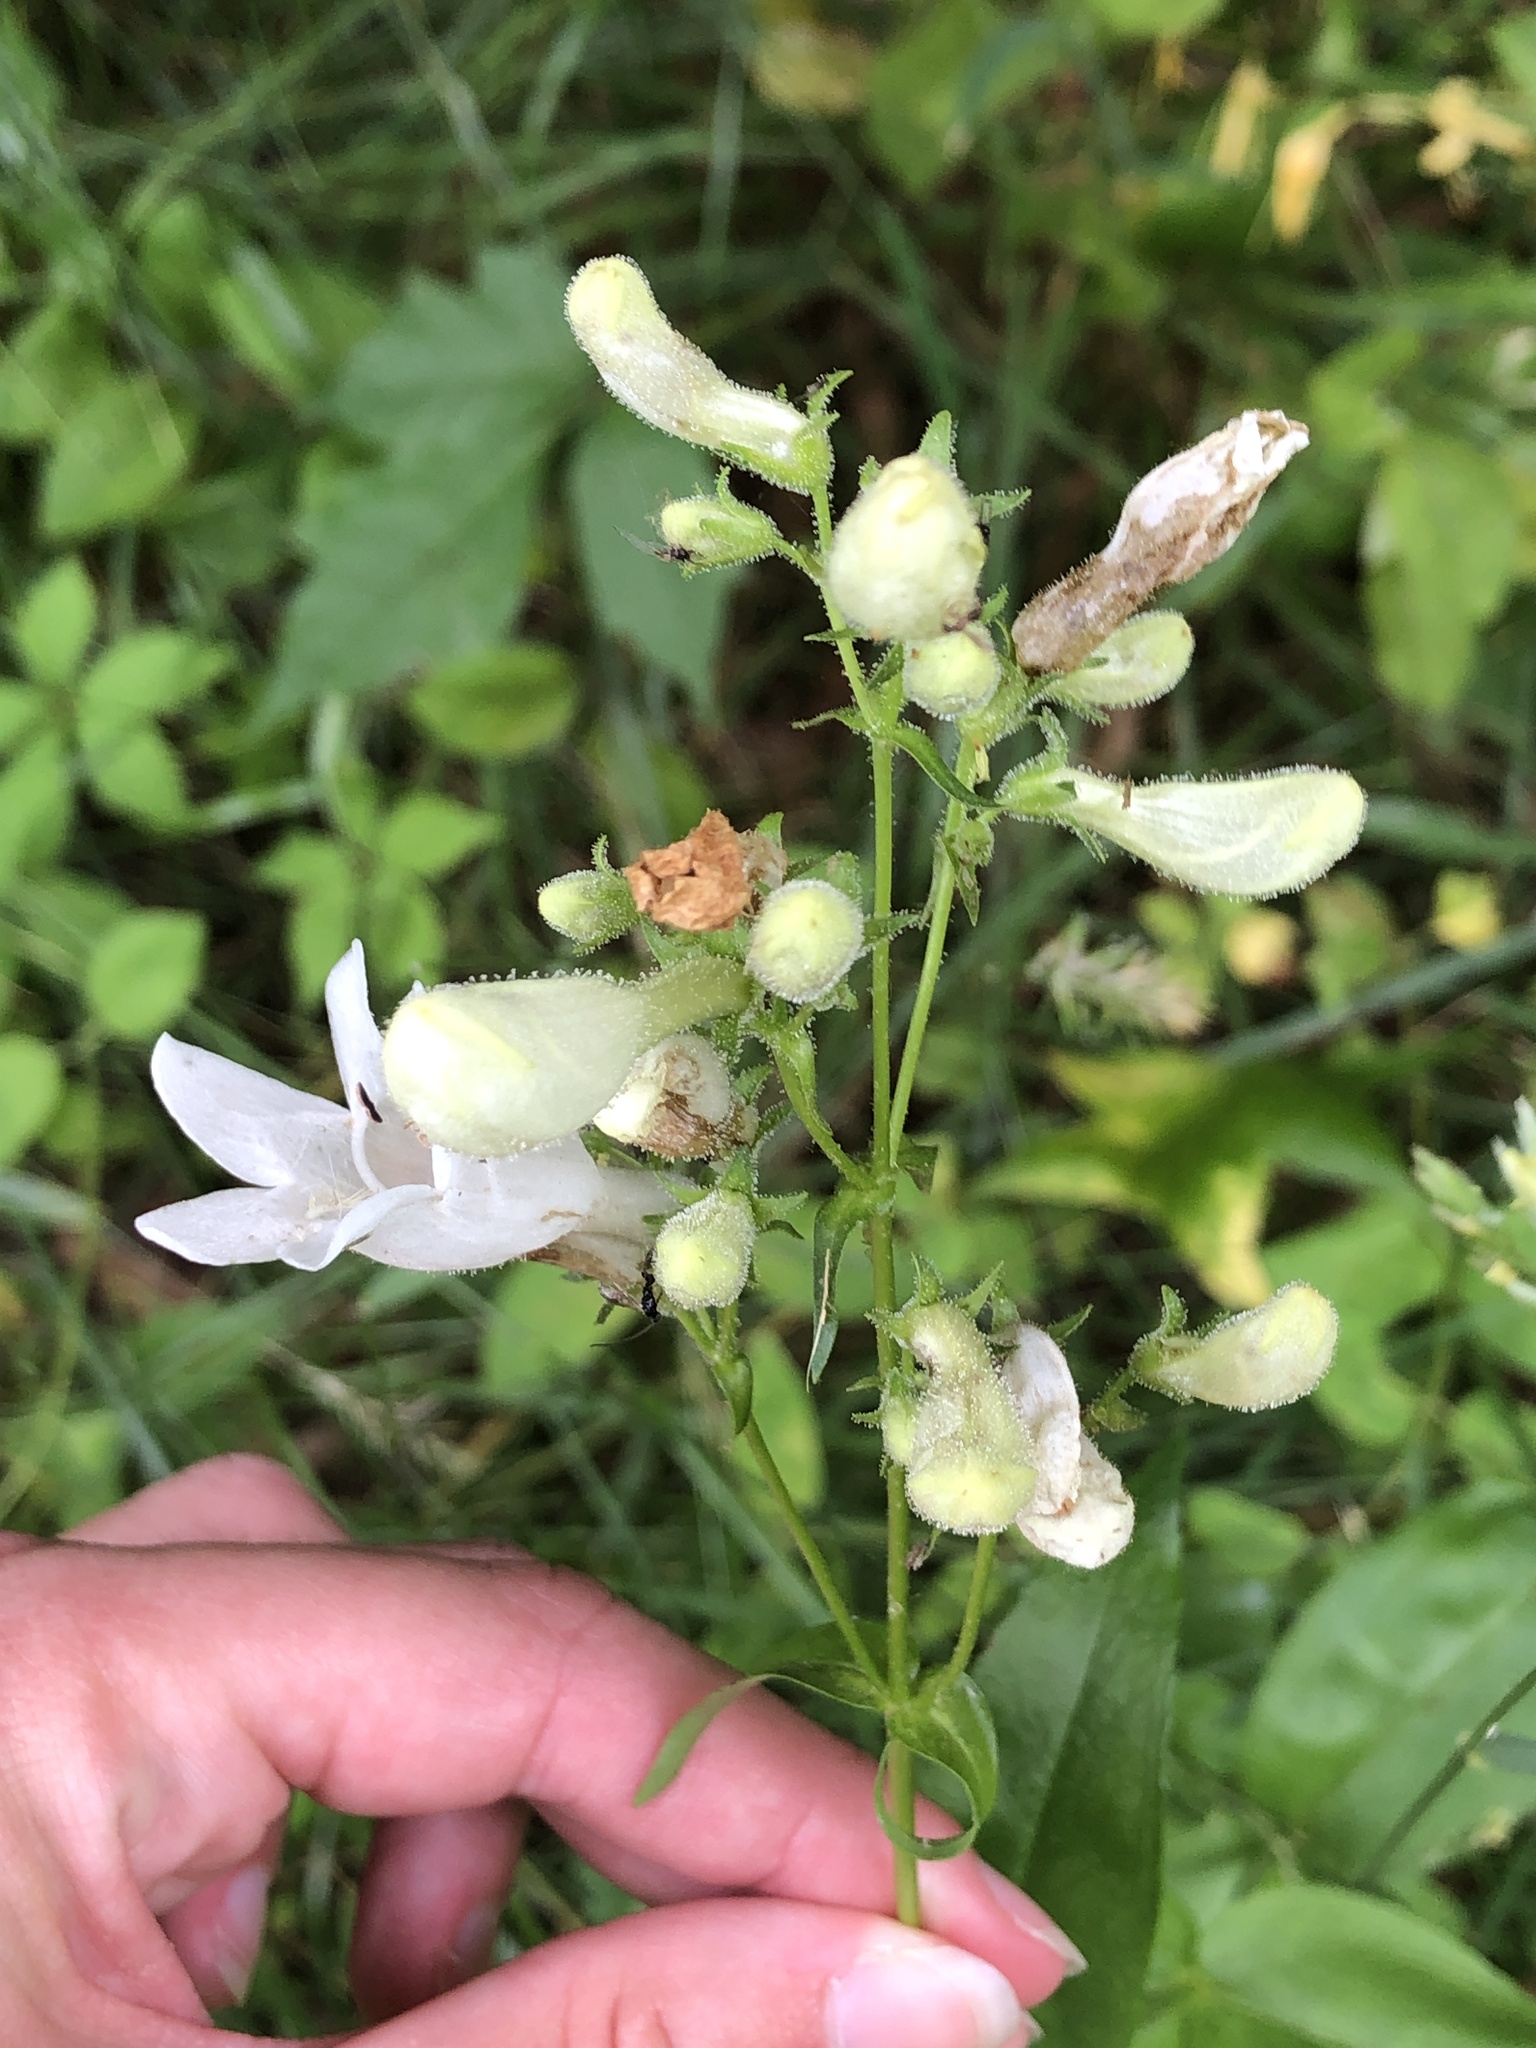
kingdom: Plantae
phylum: Tracheophyta
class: Magnoliopsida
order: Lamiales
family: Plantaginaceae
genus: Penstemon
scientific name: Penstemon digitalis
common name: Foxglove beardtongue
